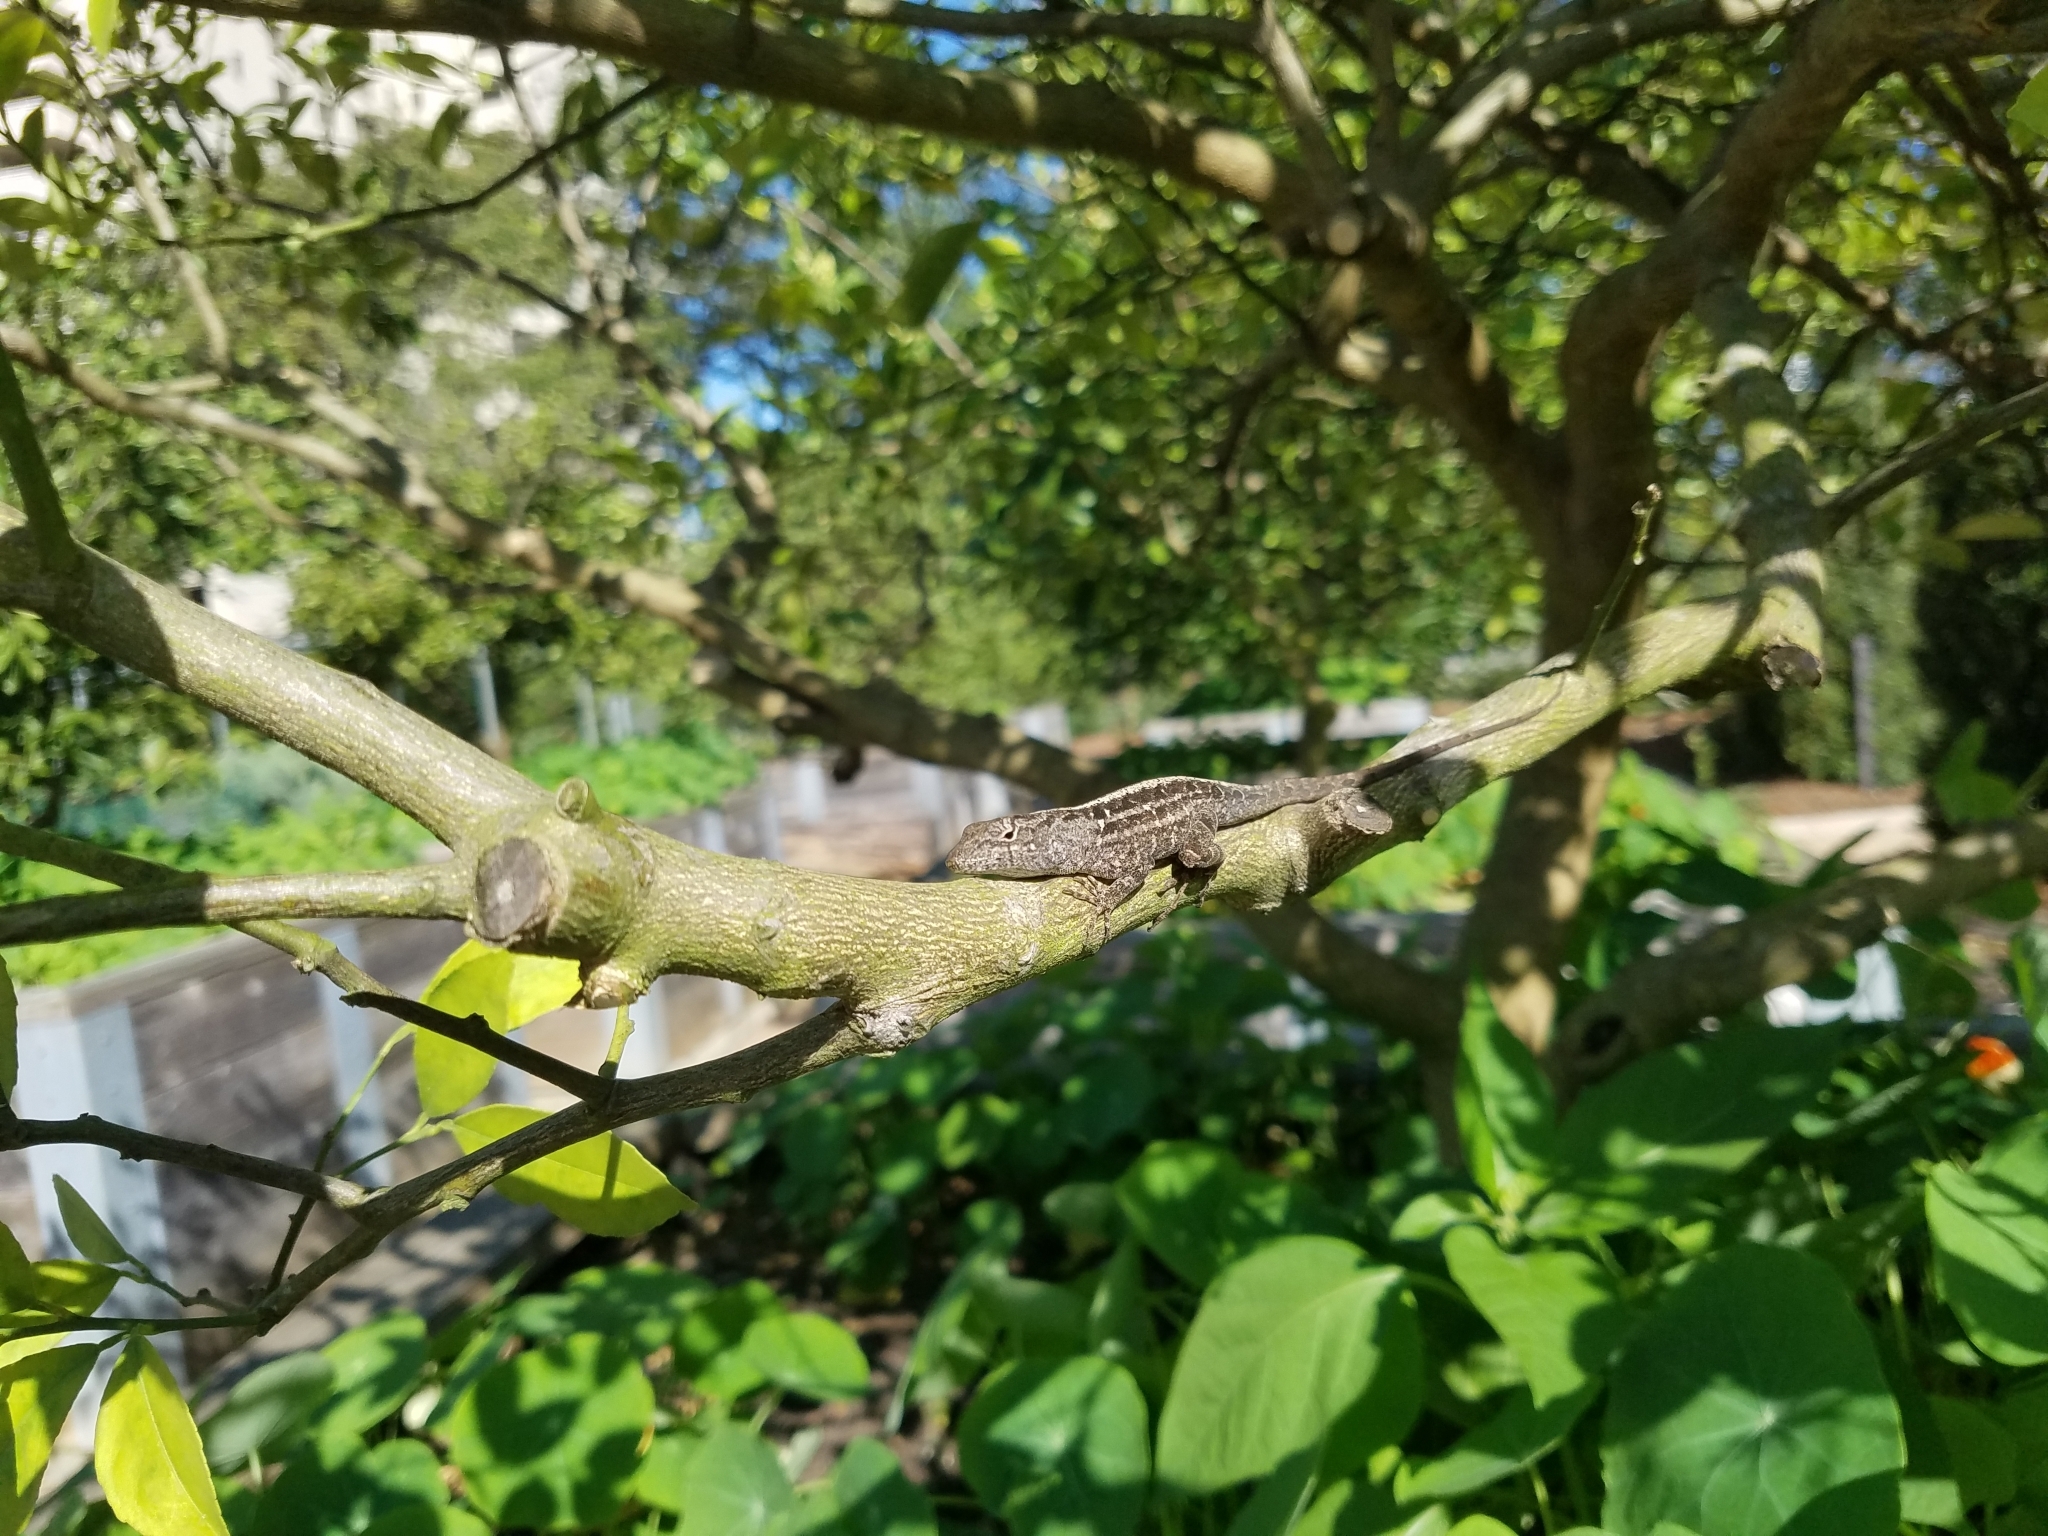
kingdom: Animalia
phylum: Chordata
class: Squamata
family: Dactyloidae
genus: Anolis
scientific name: Anolis sagrei
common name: Brown anole
